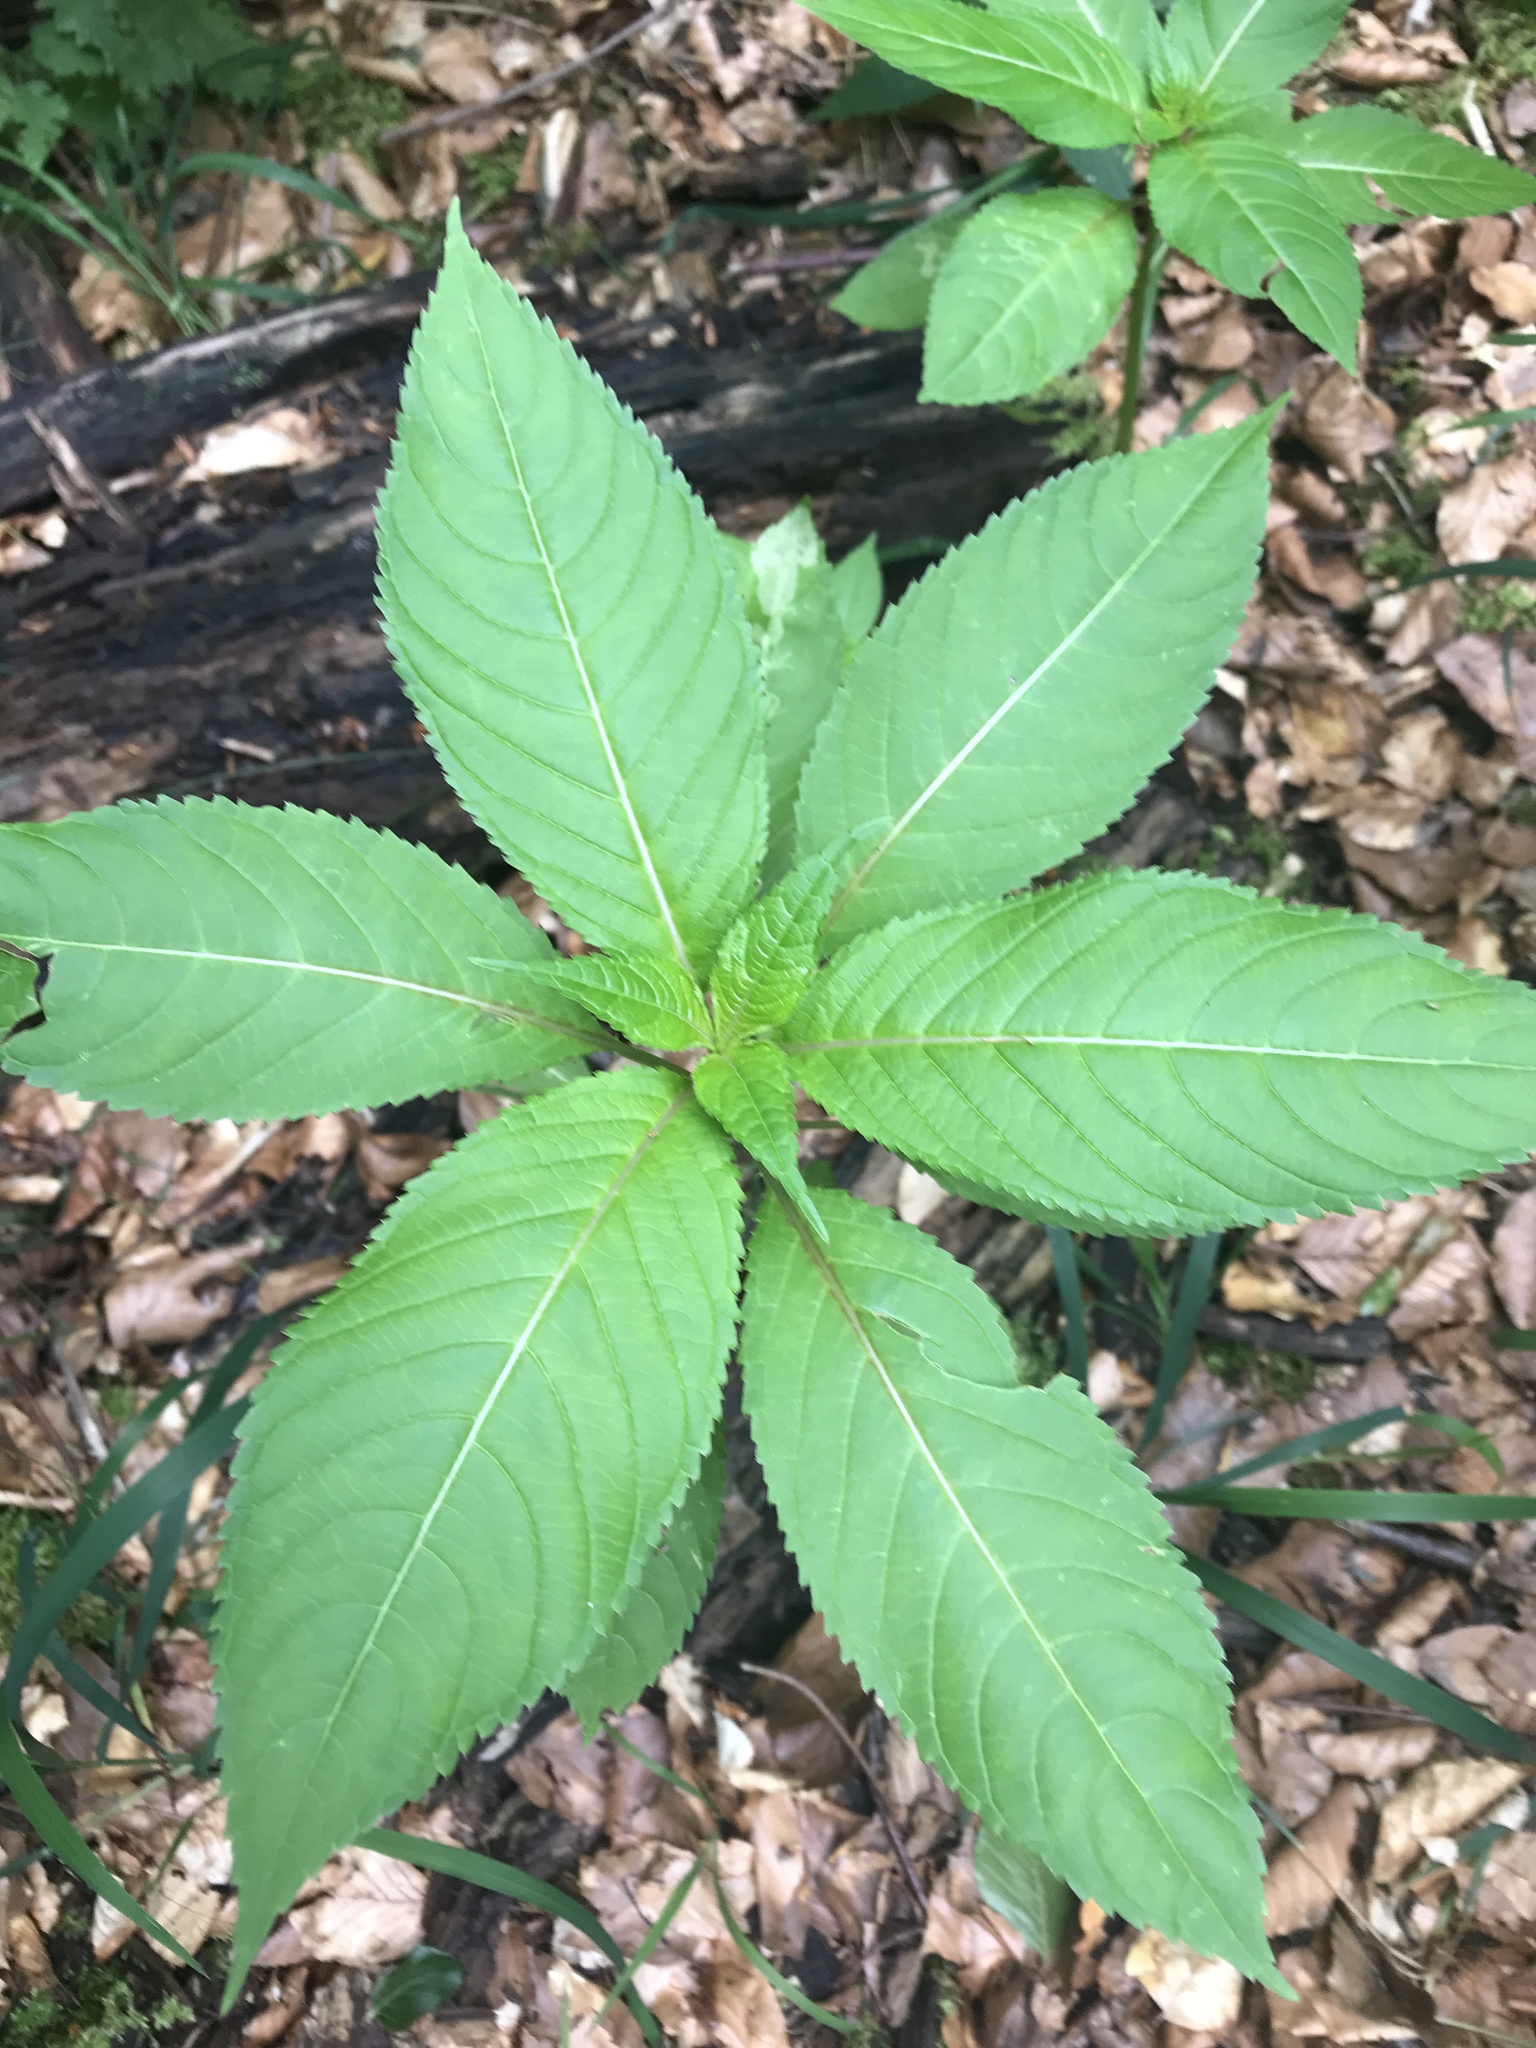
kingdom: Plantae
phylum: Tracheophyta
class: Magnoliopsida
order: Ericales
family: Balsaminaceae
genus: Impatiens
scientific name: Impatiens glandulifera
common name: Himalayan balsam
